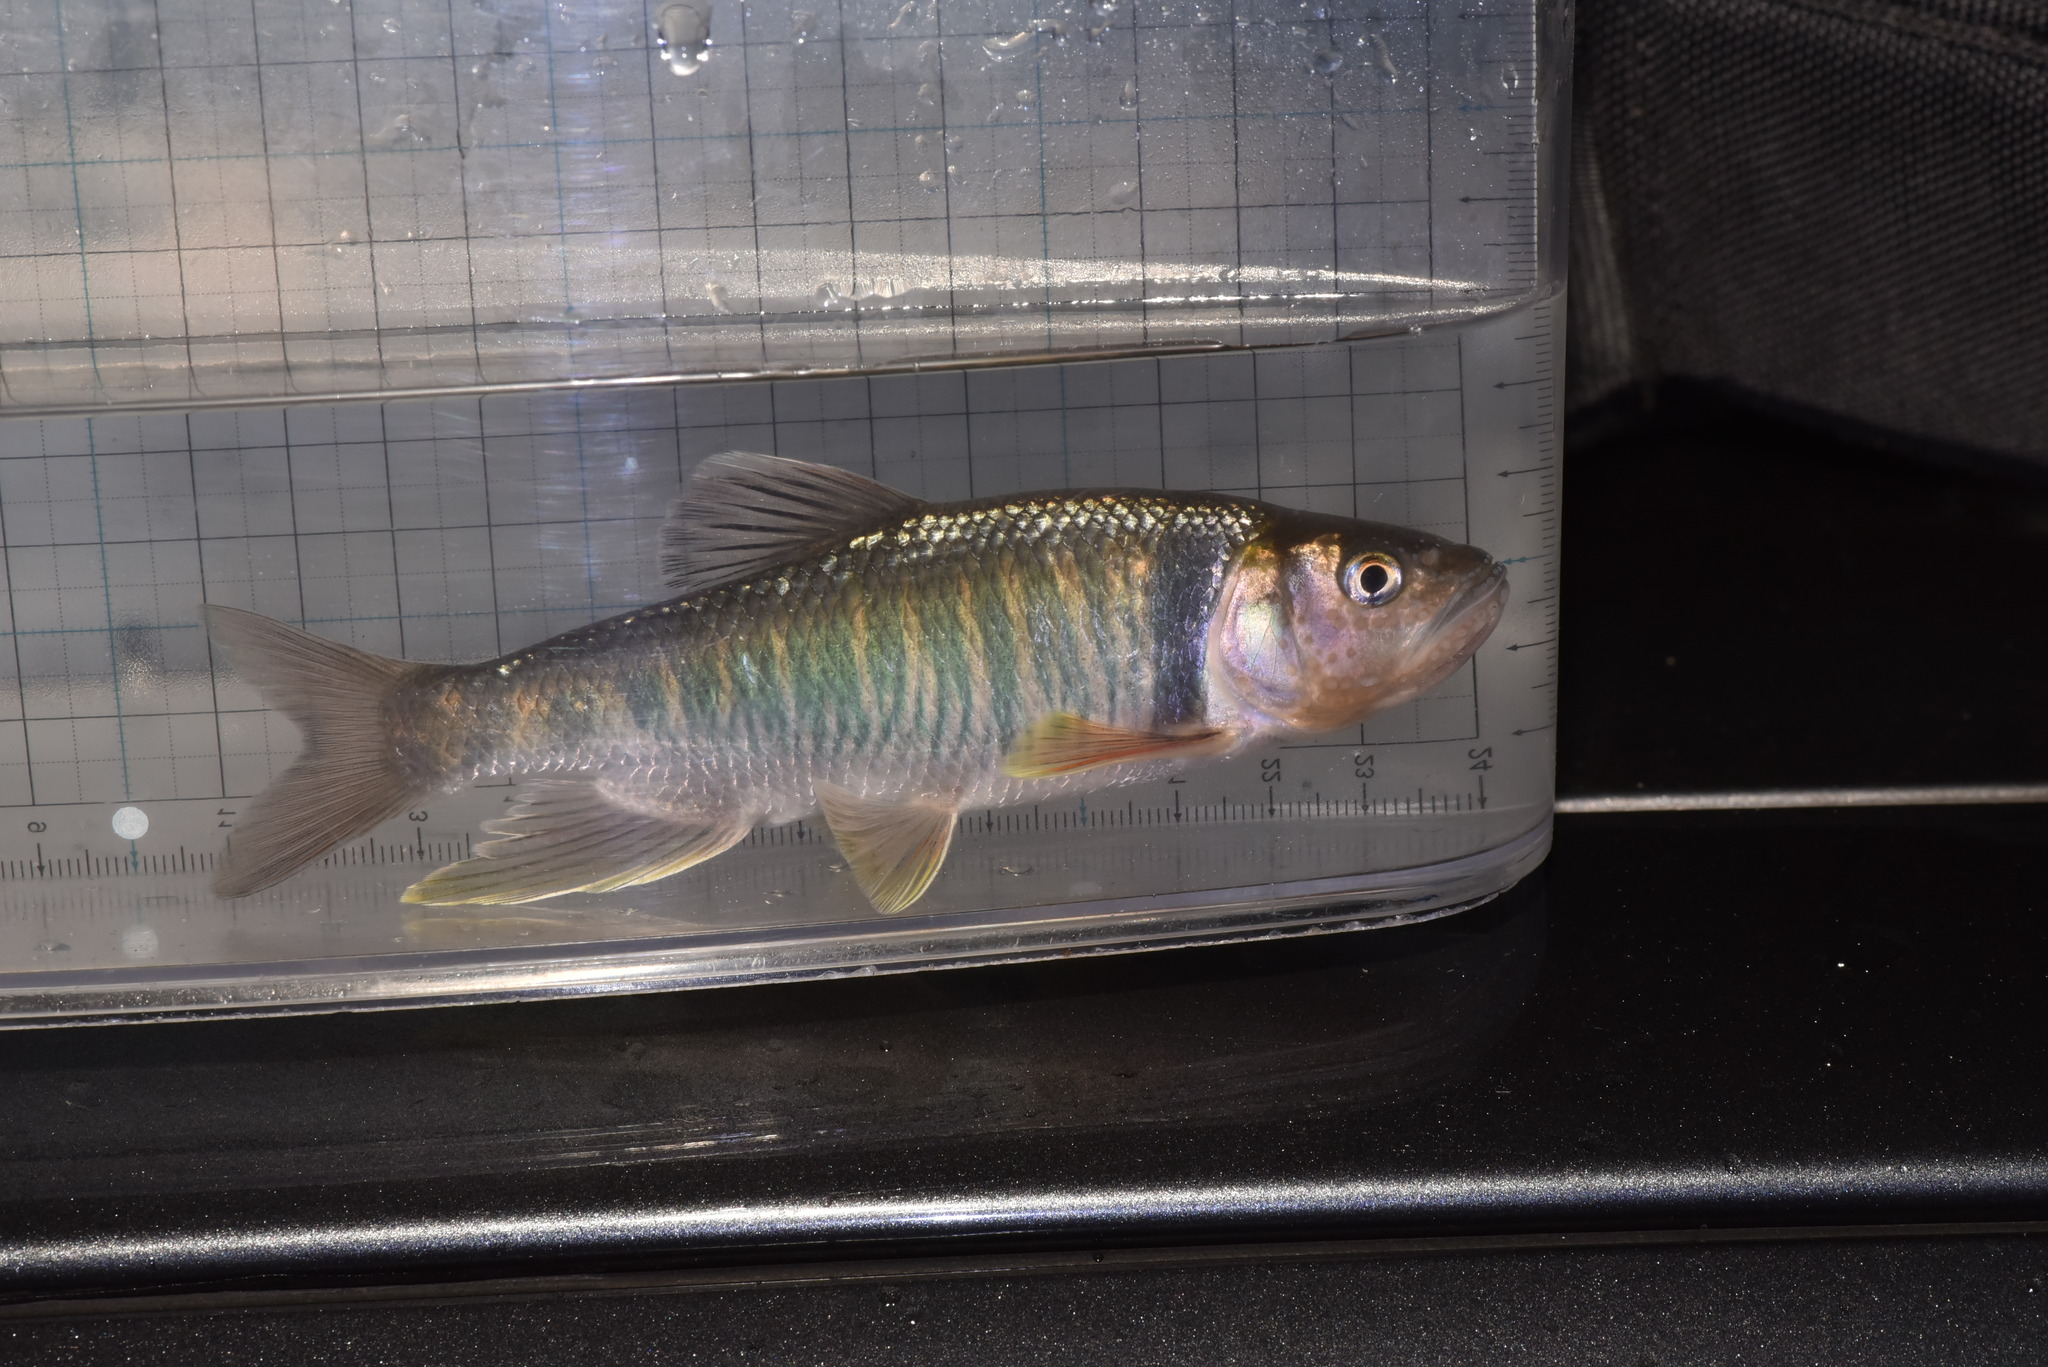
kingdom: Animalia
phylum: Chordata
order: Cypriniformes
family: Cyprinidae
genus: Opsariichthys
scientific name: Opsariichthys pachycephalus
